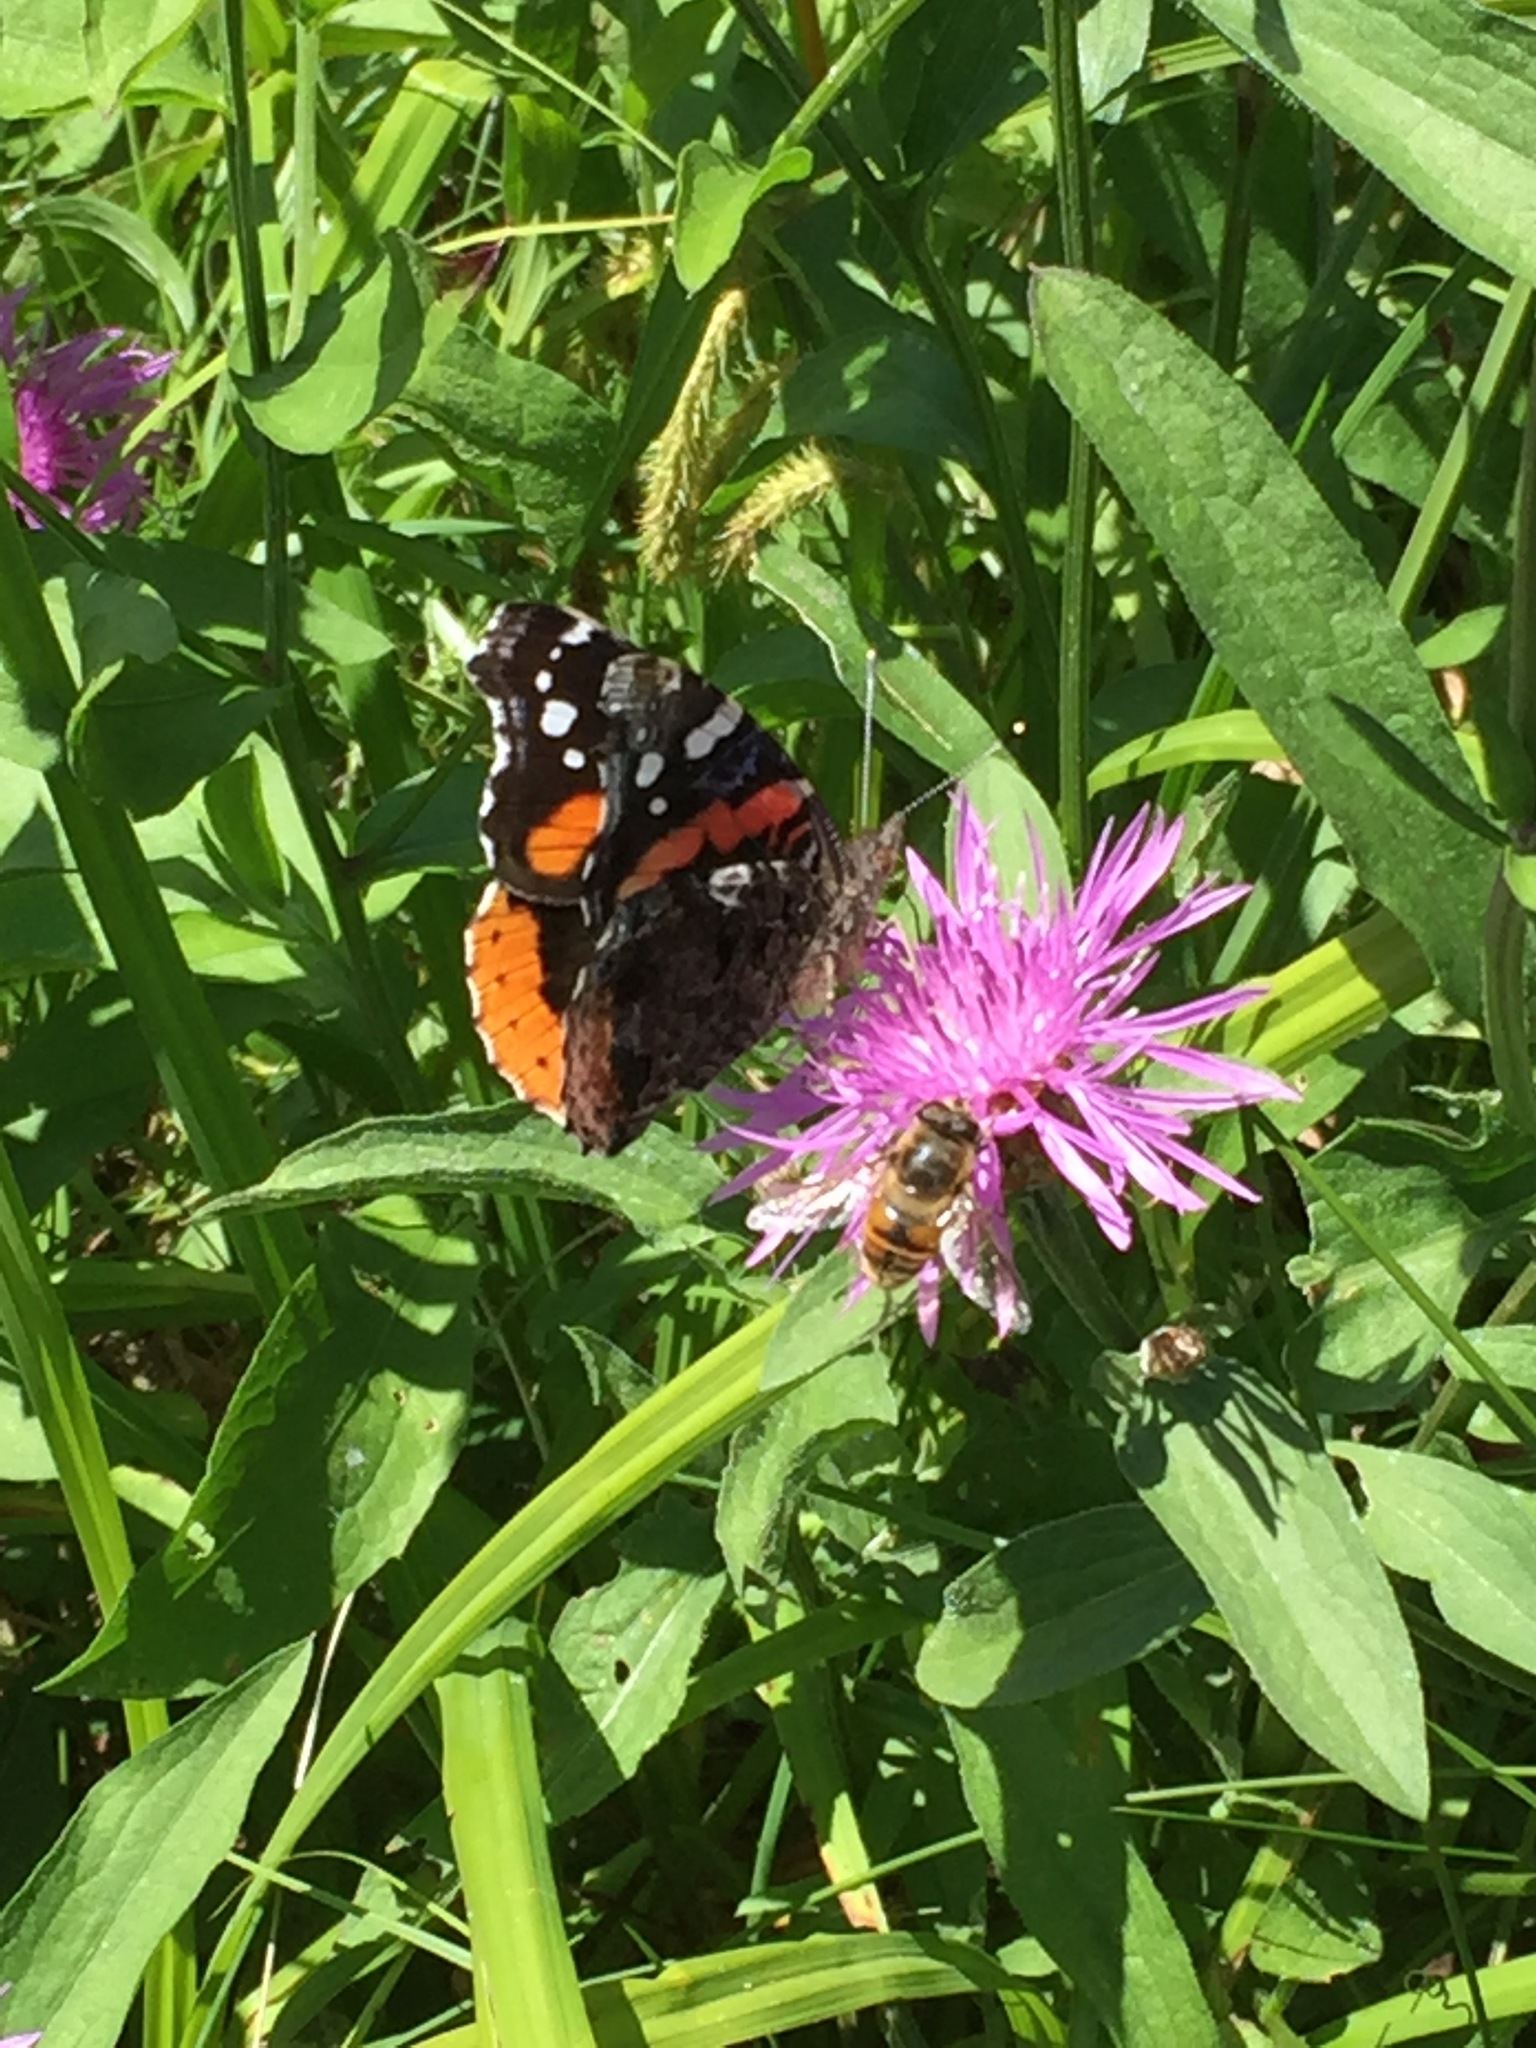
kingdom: Animalia
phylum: Arthropoda
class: Insecta
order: Lepidoptera
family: Nymphalidae
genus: Vanessa
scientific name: Vanessa atalanta
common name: Red admiral
